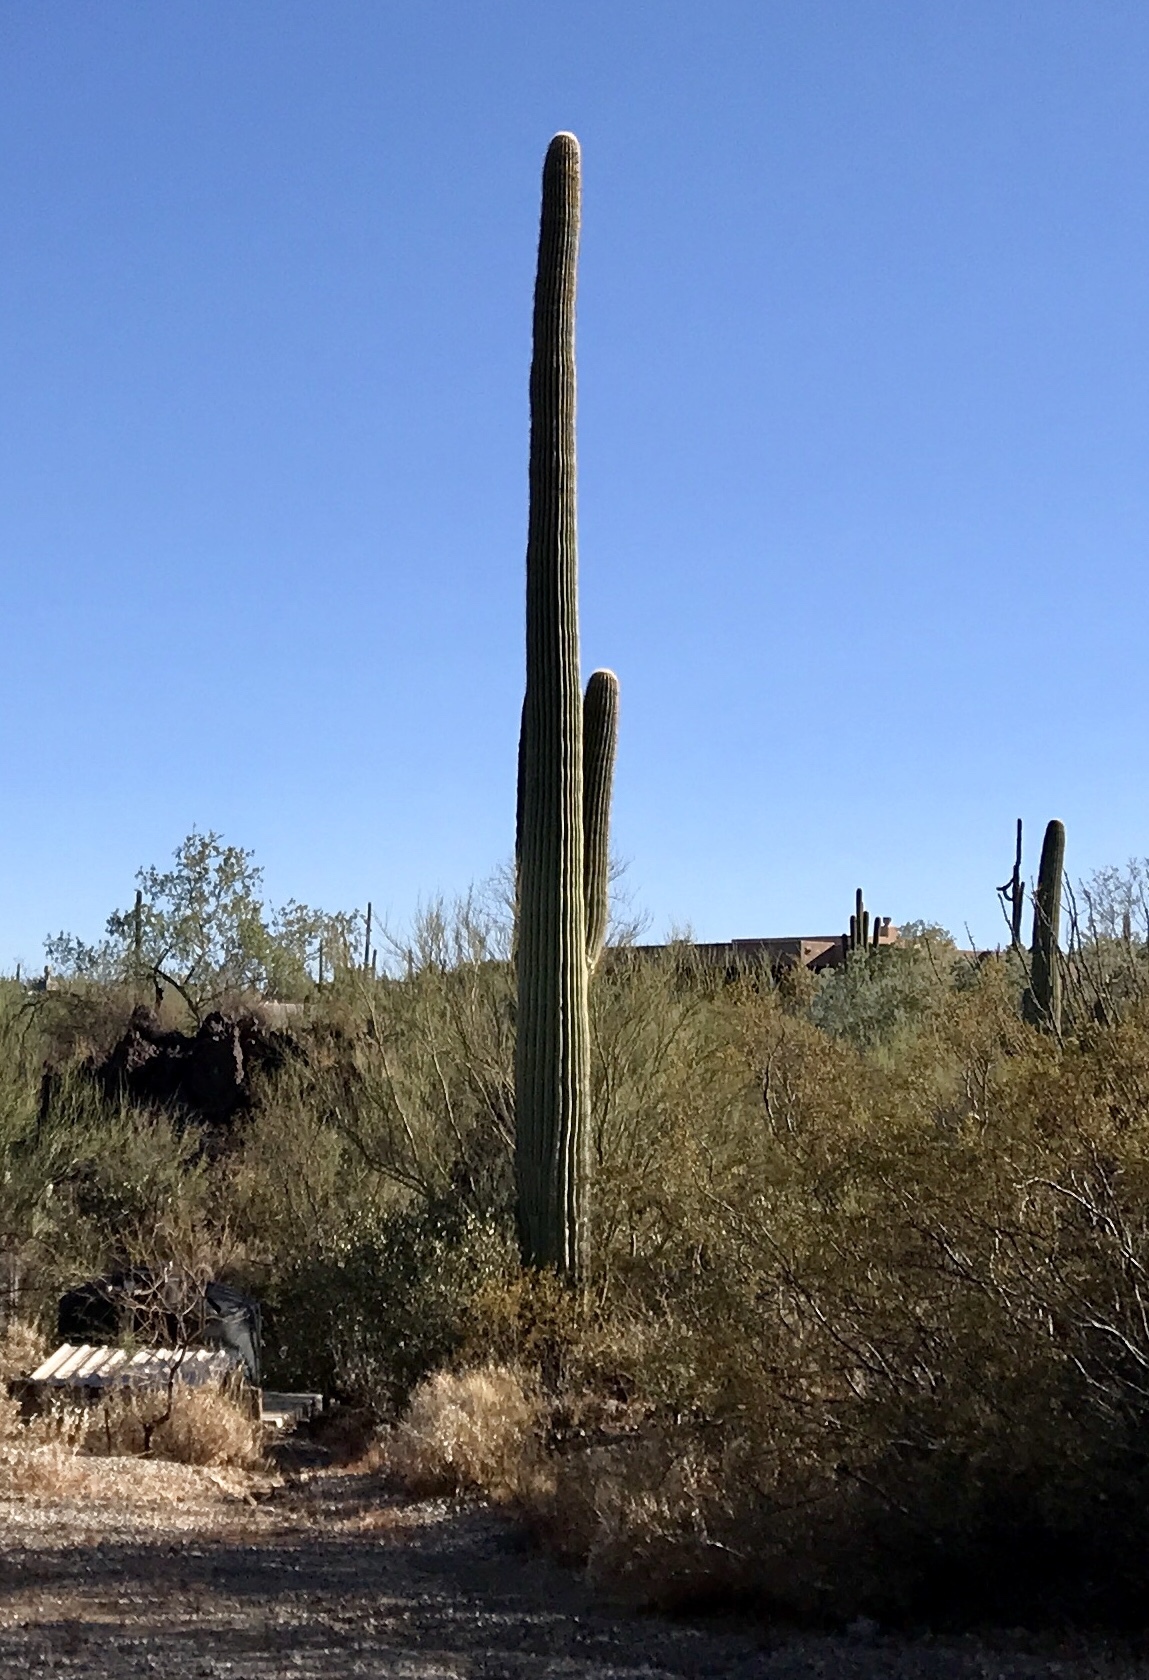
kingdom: Plantae
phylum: Tracheophyta
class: Magnoliopsida
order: Caryophyllales
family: Cactaceae
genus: Carnegiea
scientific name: Carnegiea gigantea
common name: Saguaro
